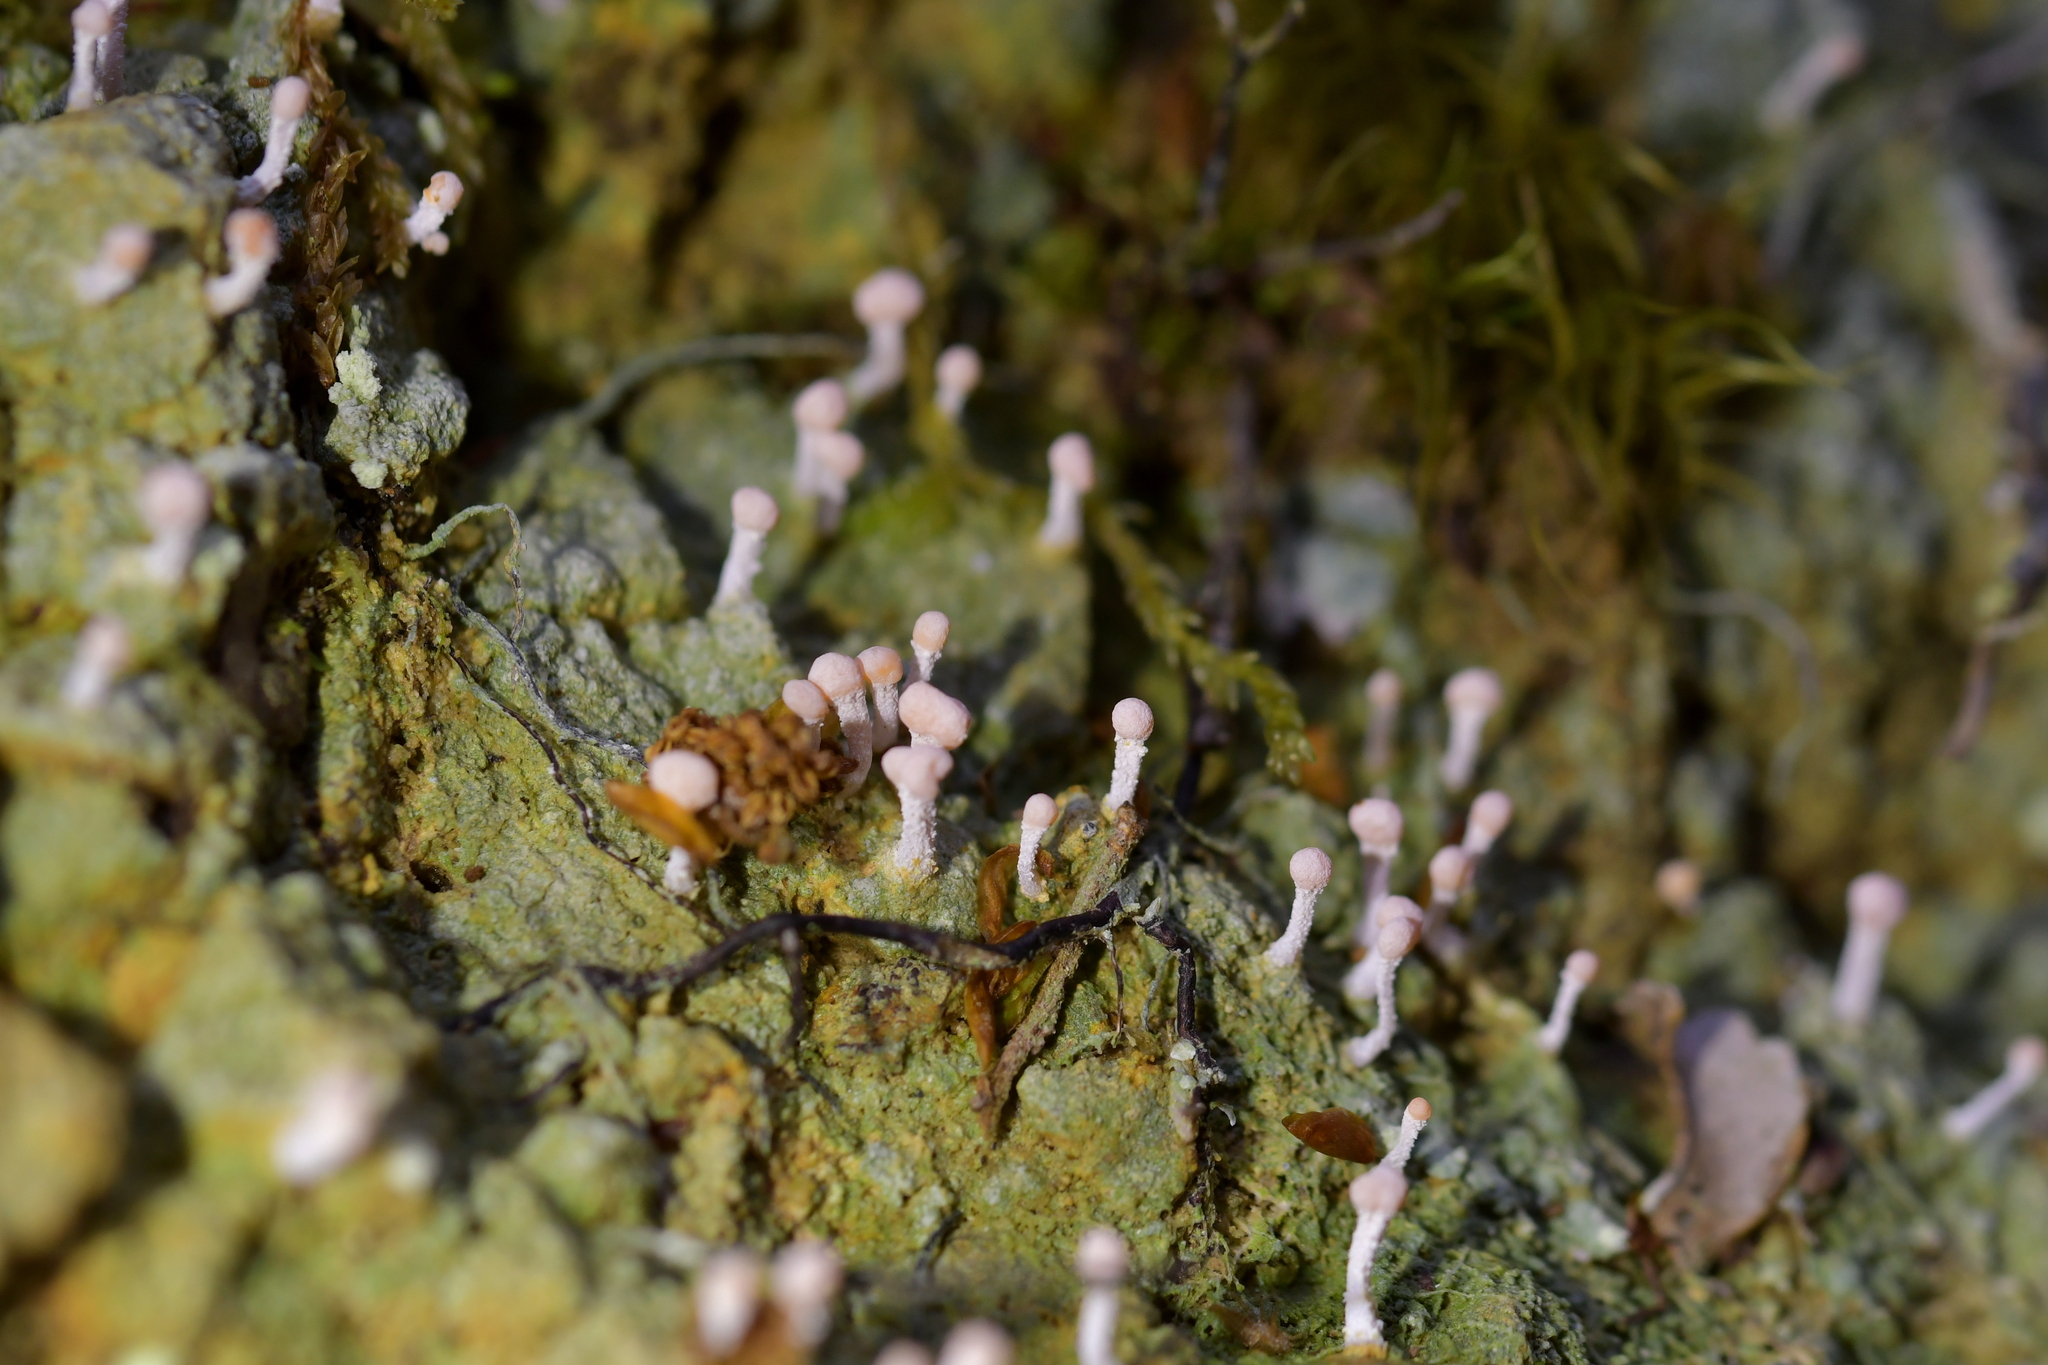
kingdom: Fungi
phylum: Ascomycota
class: Lecanoromycetes
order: Pertusariales
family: Icmadophilaceae
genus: Dibaeis
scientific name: Dibaeis arcuata
